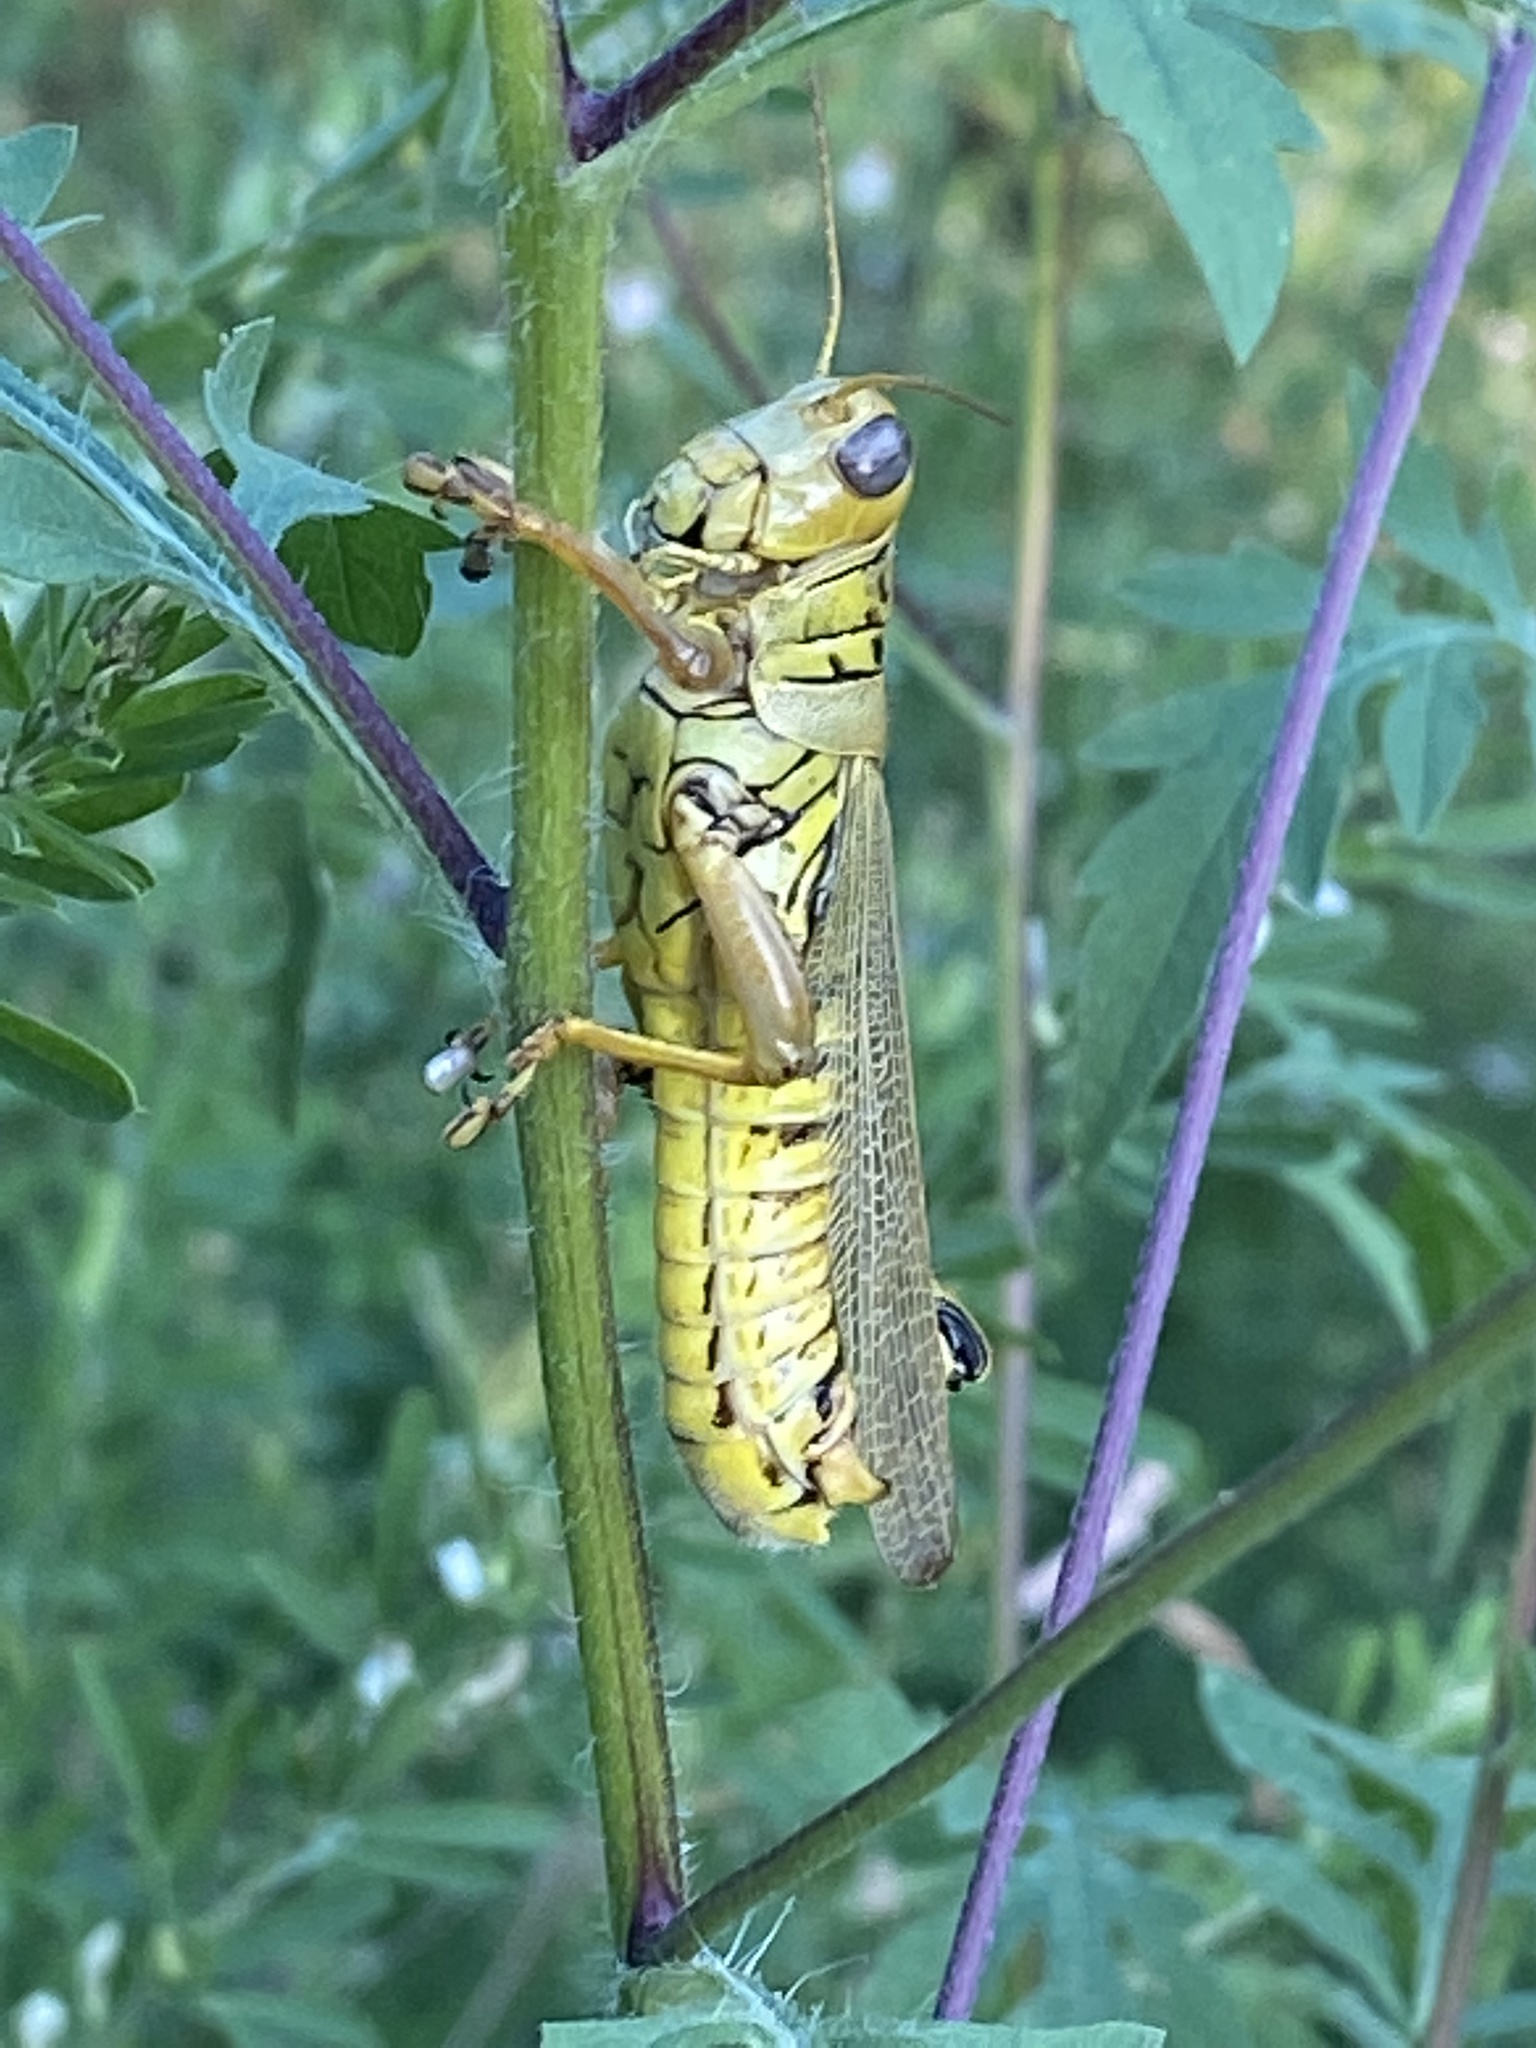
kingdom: Animalia
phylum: Arthropoda
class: Insecta
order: Orthoptera
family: Acrididae
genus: Melanoplus
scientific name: Melanoplus differentialis
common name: Differential grasshopper
